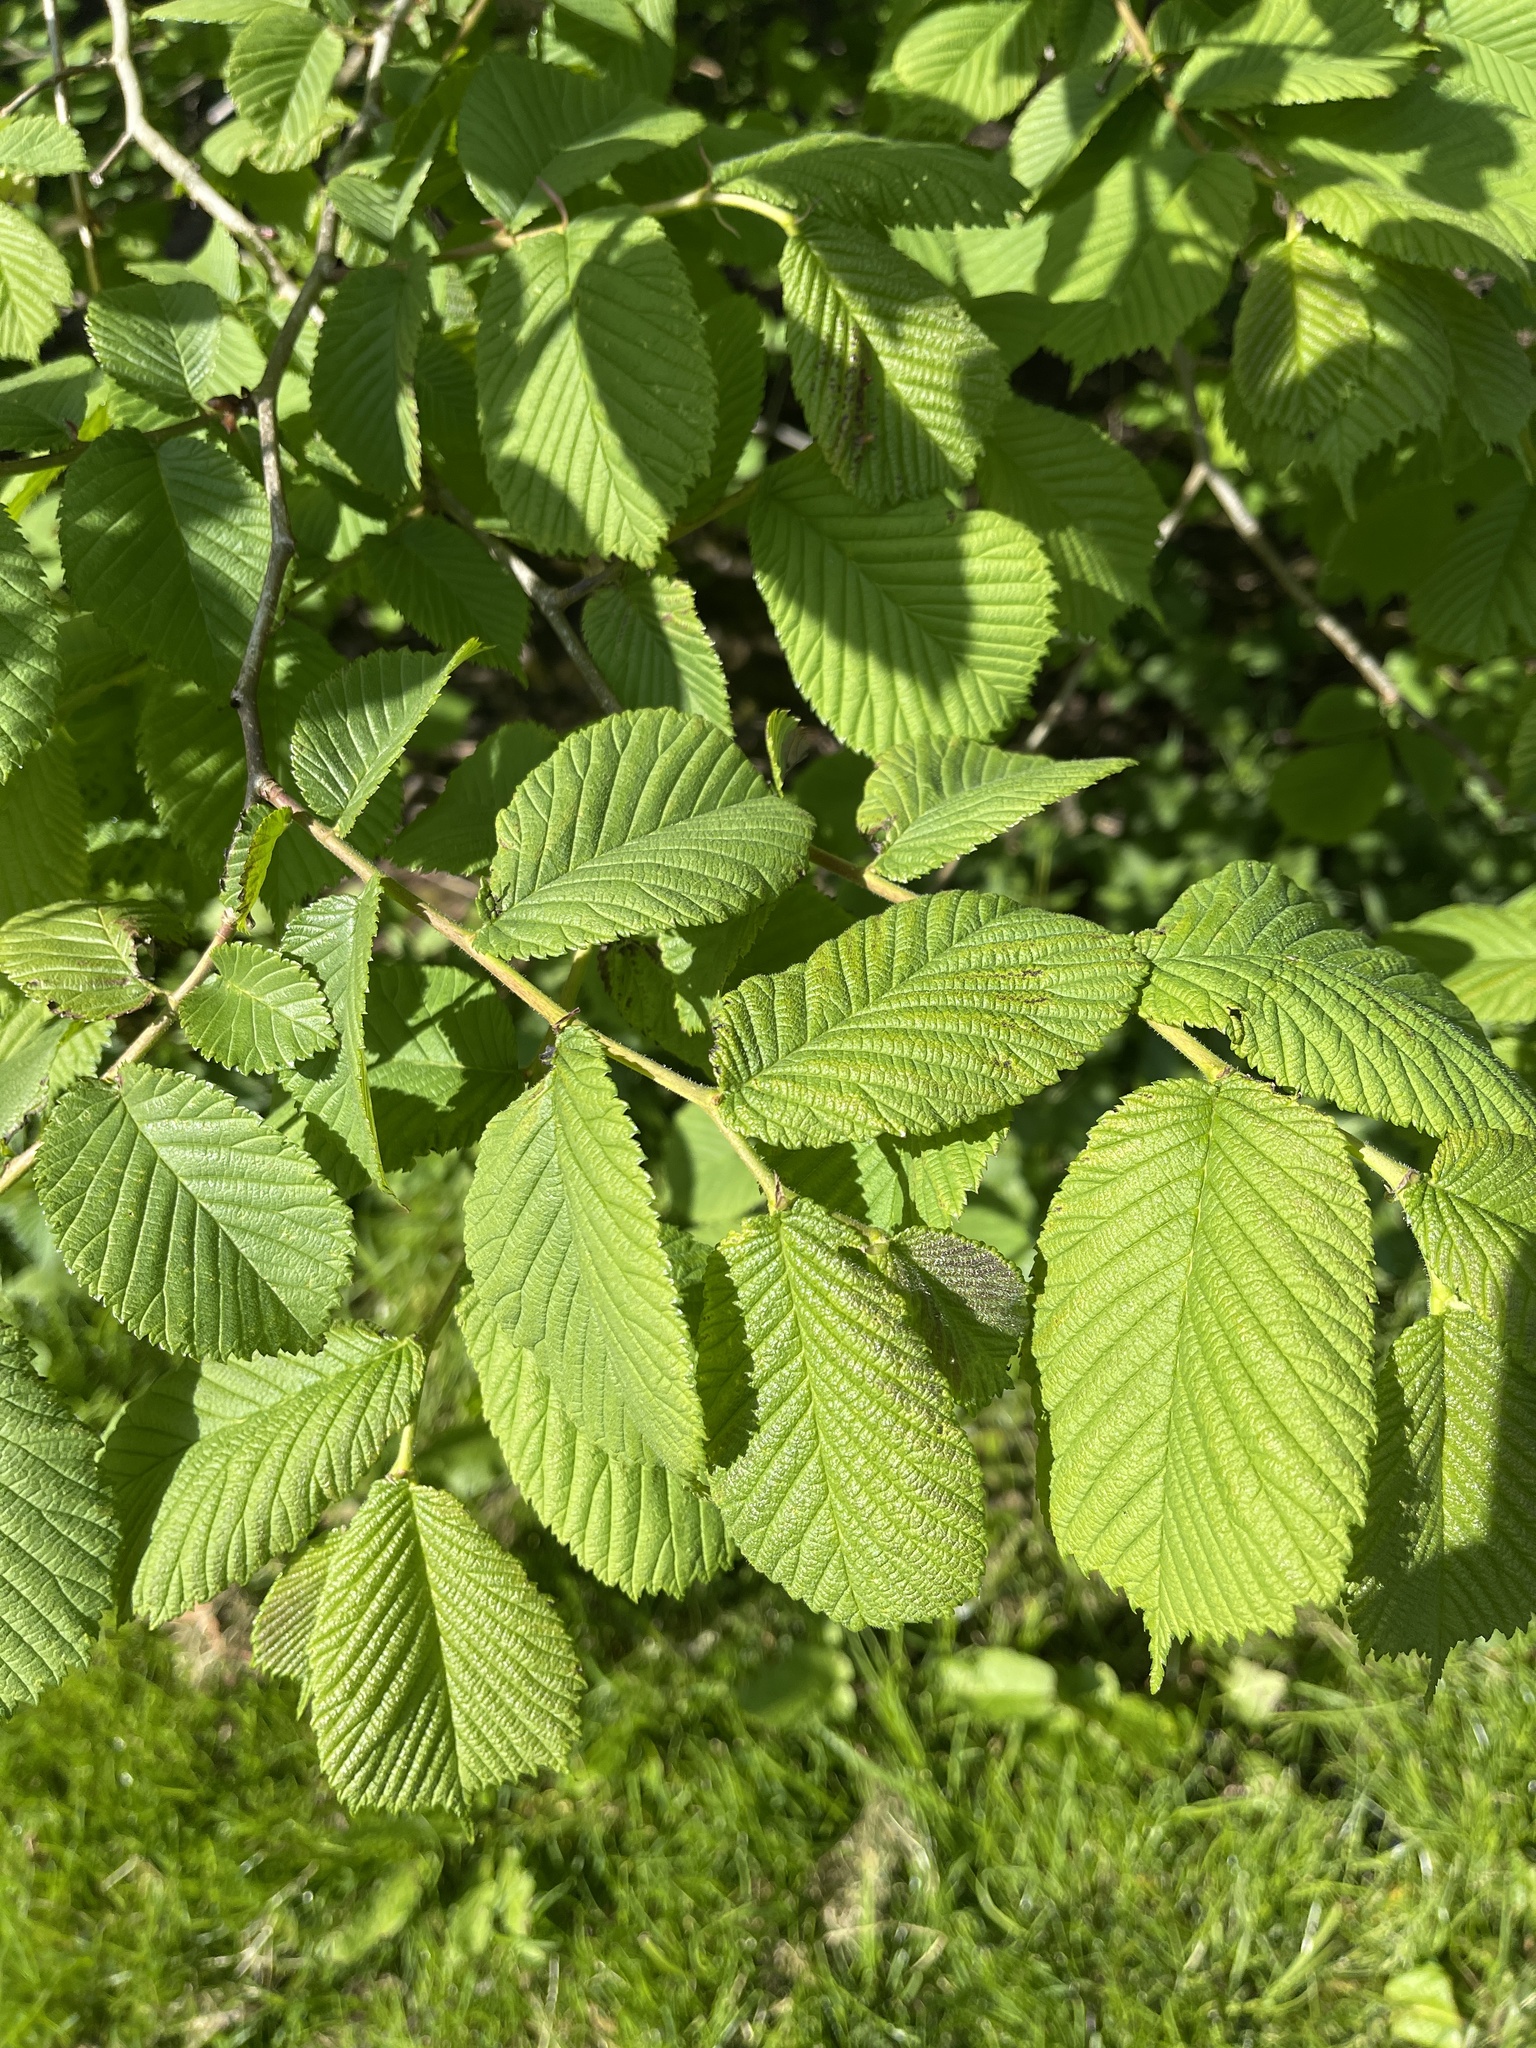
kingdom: Plantae
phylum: Tracheophyta
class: Magnoliopsida
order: Rosales
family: Ulmaceae
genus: Ulmus
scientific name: Ulmus glabra
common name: Wych elm
